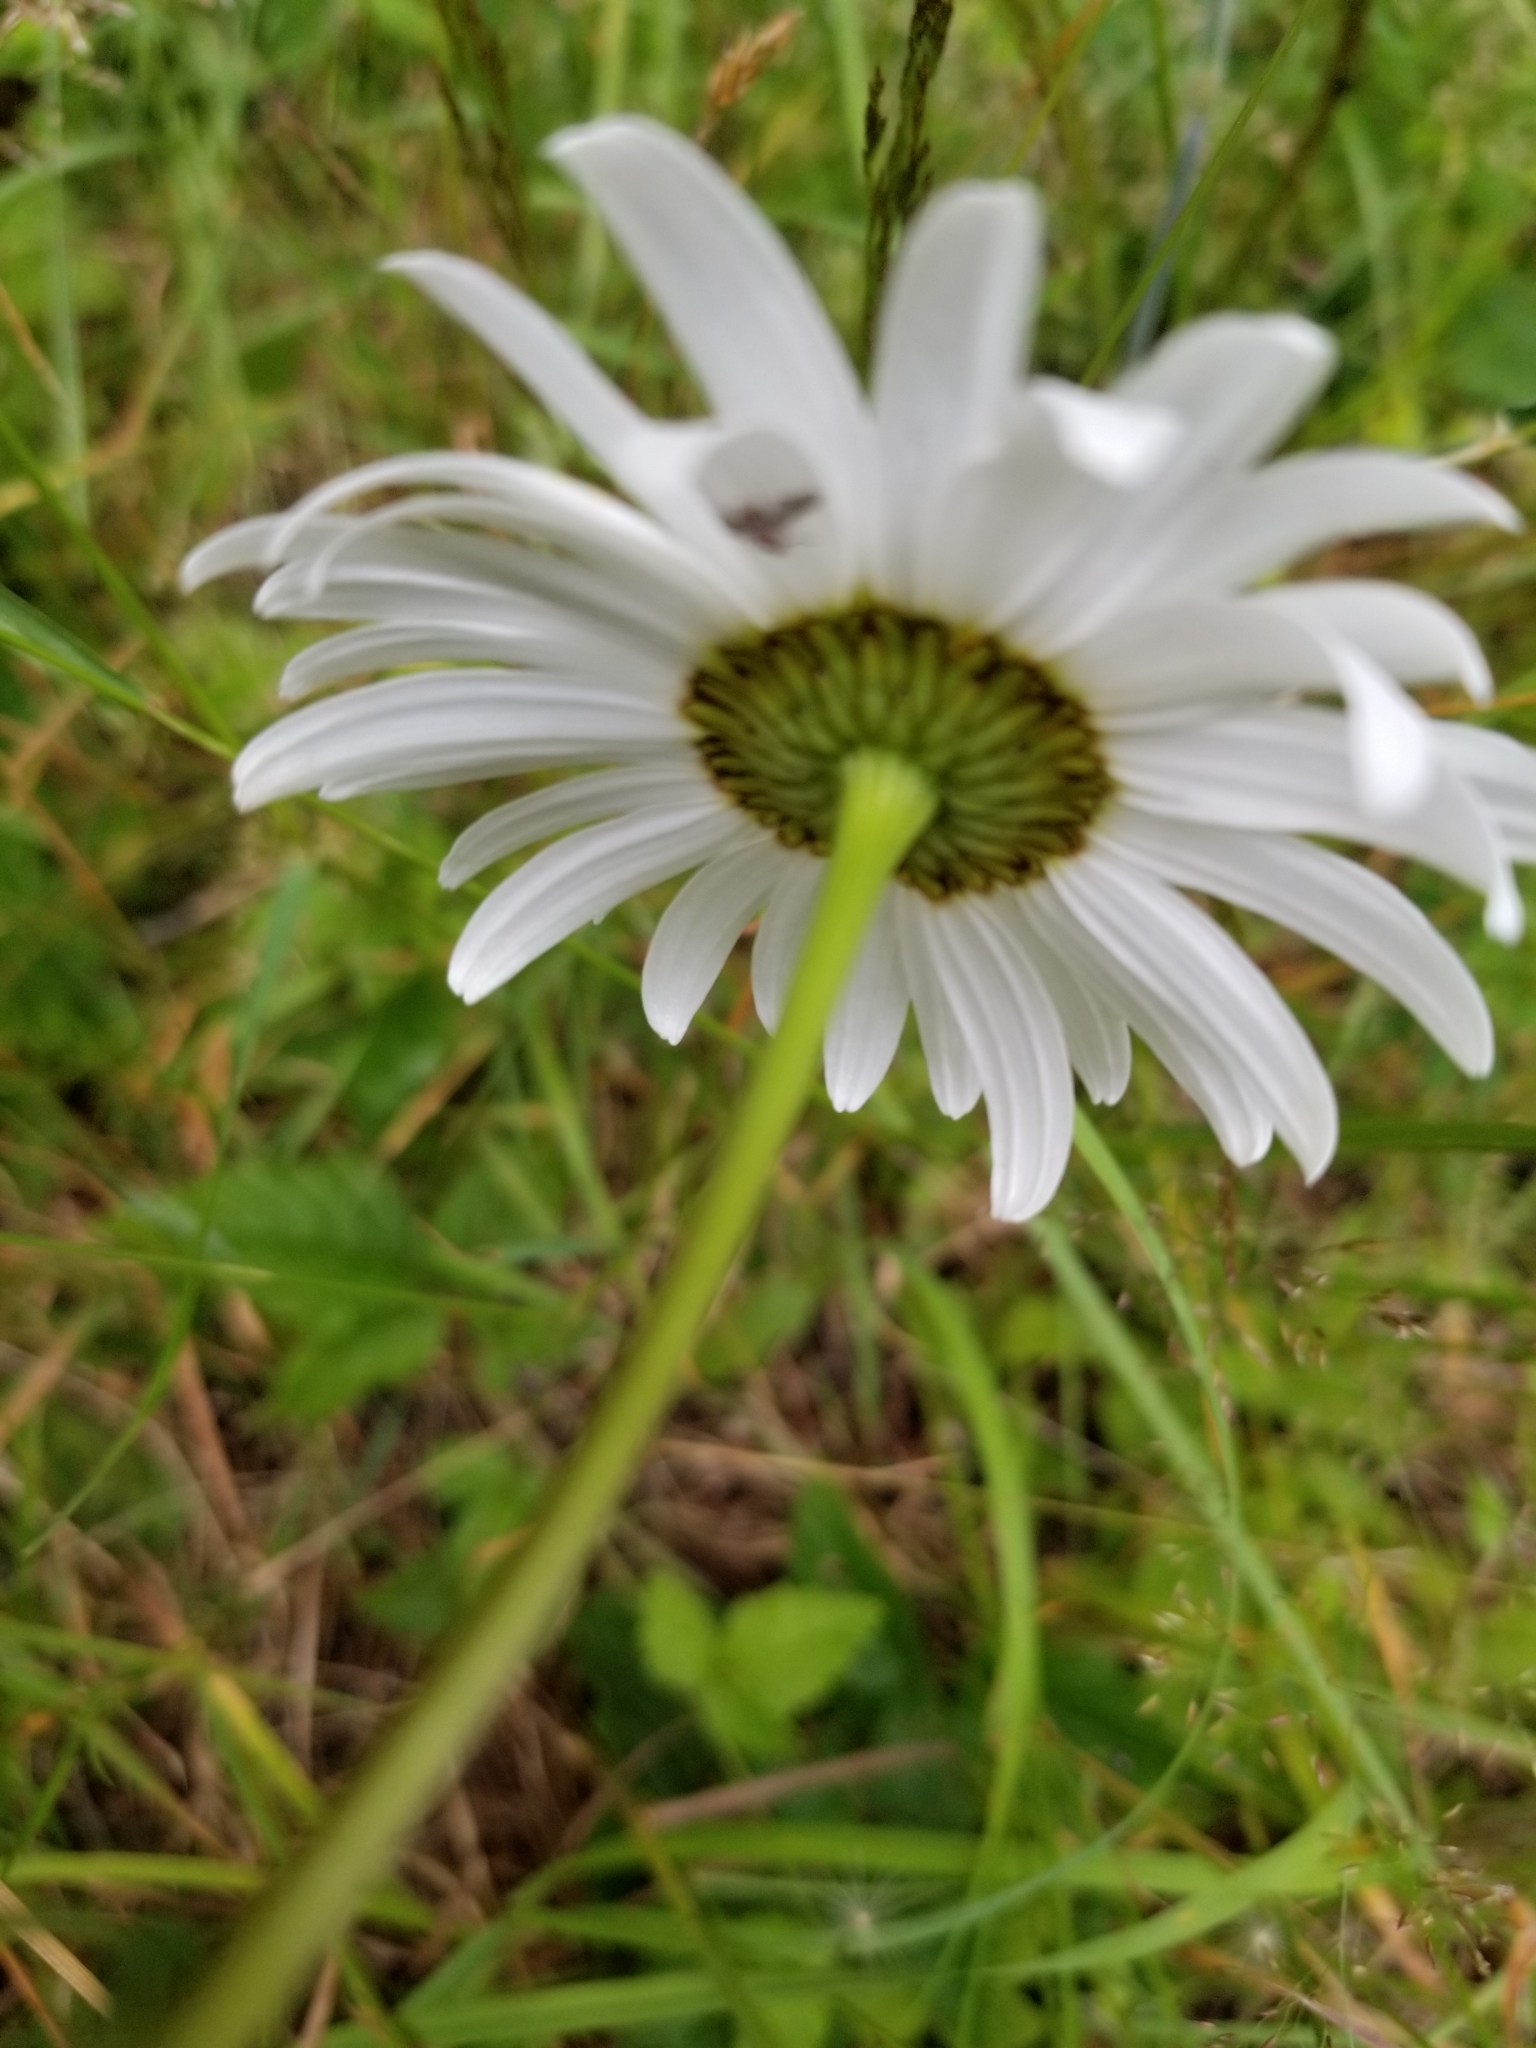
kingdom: Plantae
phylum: Tracheophyta
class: Magnoliopsida
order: Asterales
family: Asteraceae
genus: Leucanthemum
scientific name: Leucanthemum vulgare
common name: Oxeye daisy
